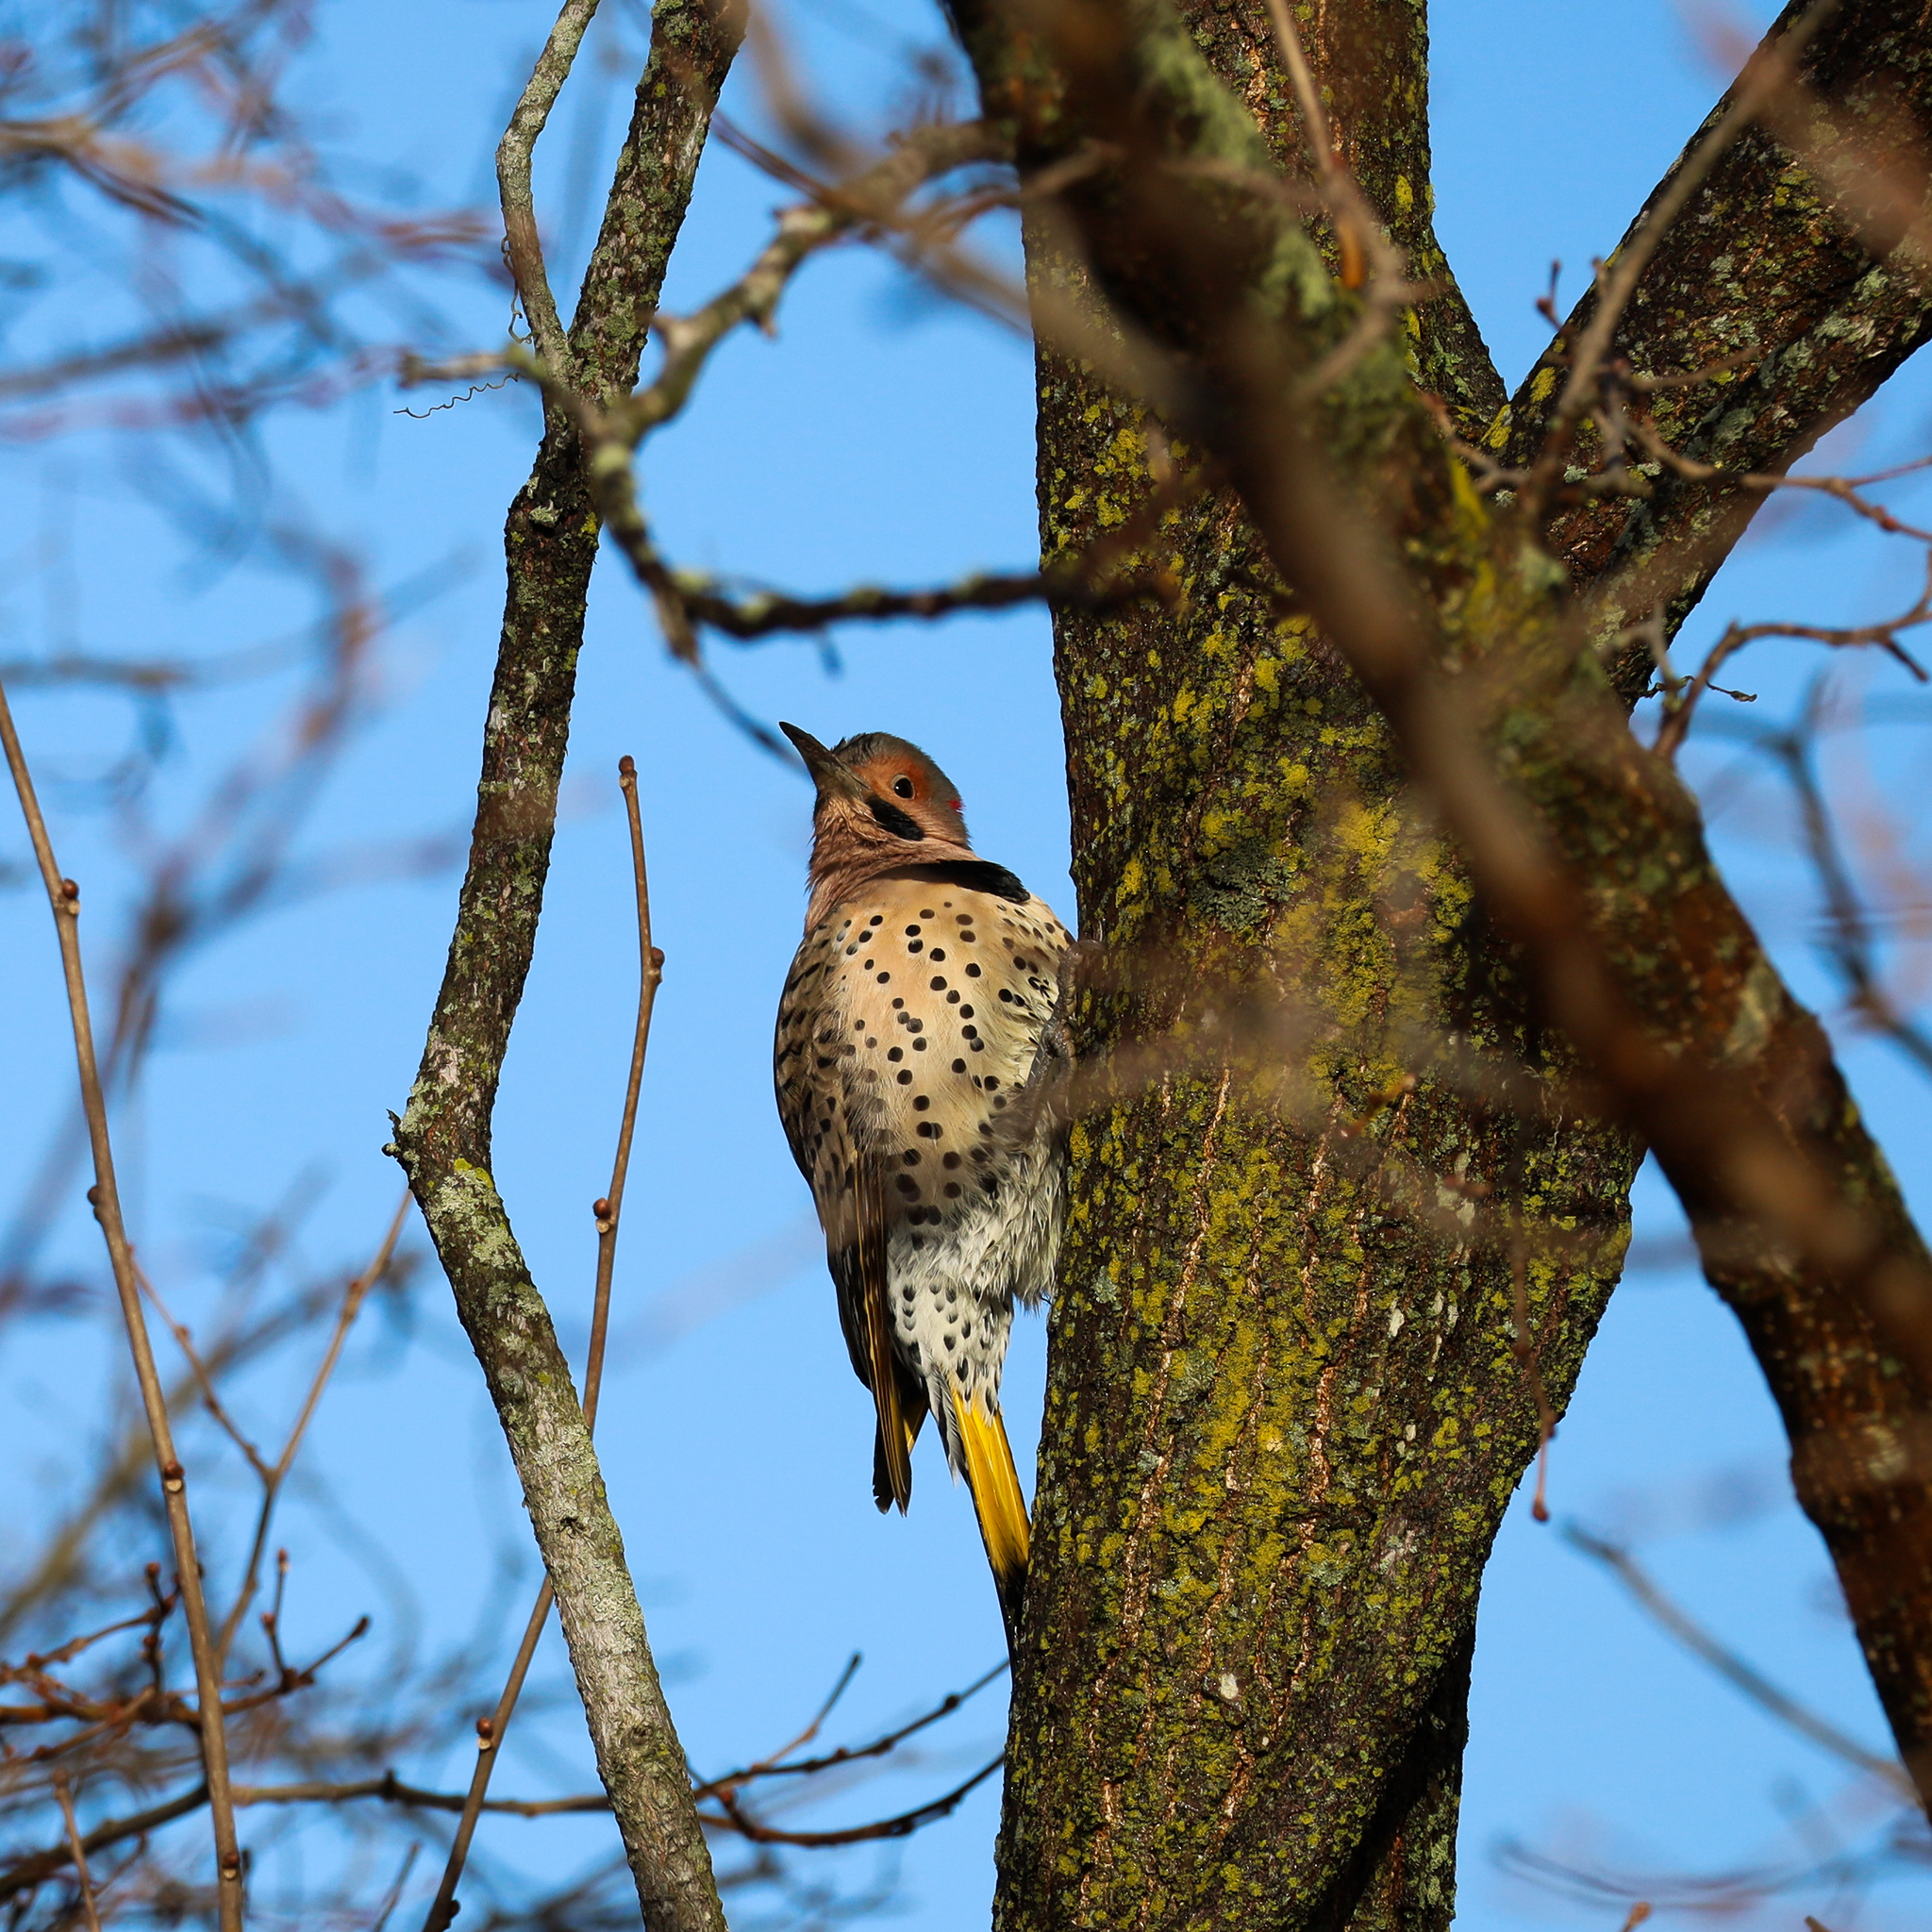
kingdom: Animalia
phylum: Chordata
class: Aves
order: Piciformes
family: Picidae
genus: Colaptes
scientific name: Colaptes auratus
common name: Northern flicker
